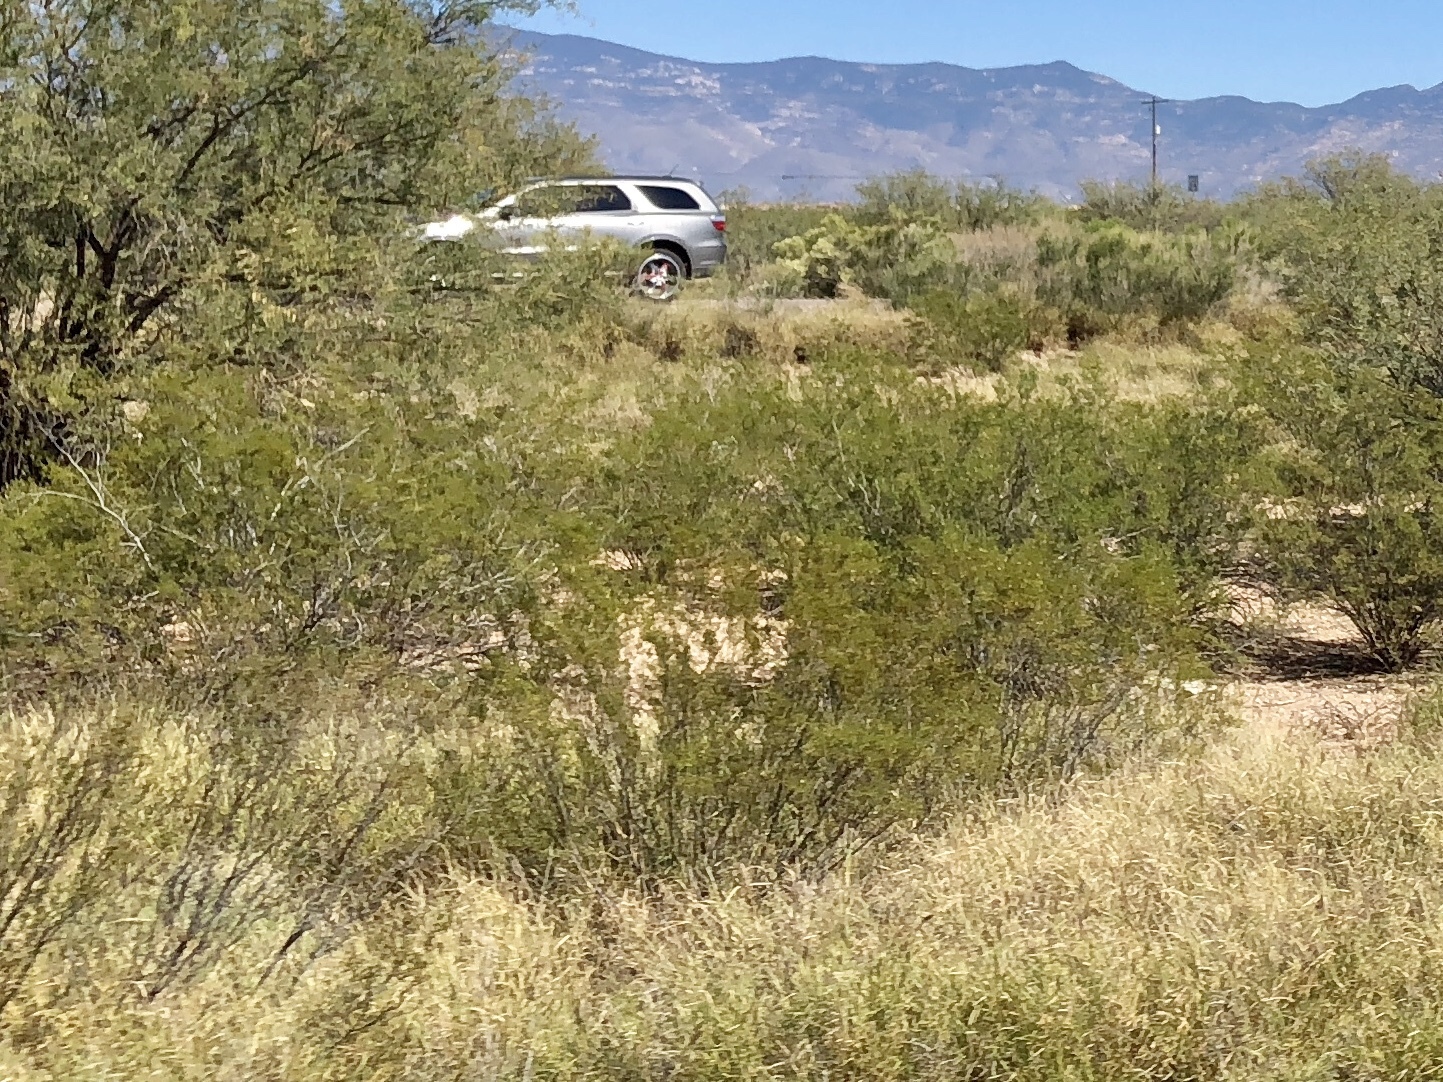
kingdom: Plantae
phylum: Tracheophyta
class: Magnoliopsida
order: Zygophyllales
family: Zygophyllaceae
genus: Larrea
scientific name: Larrea tridentata
